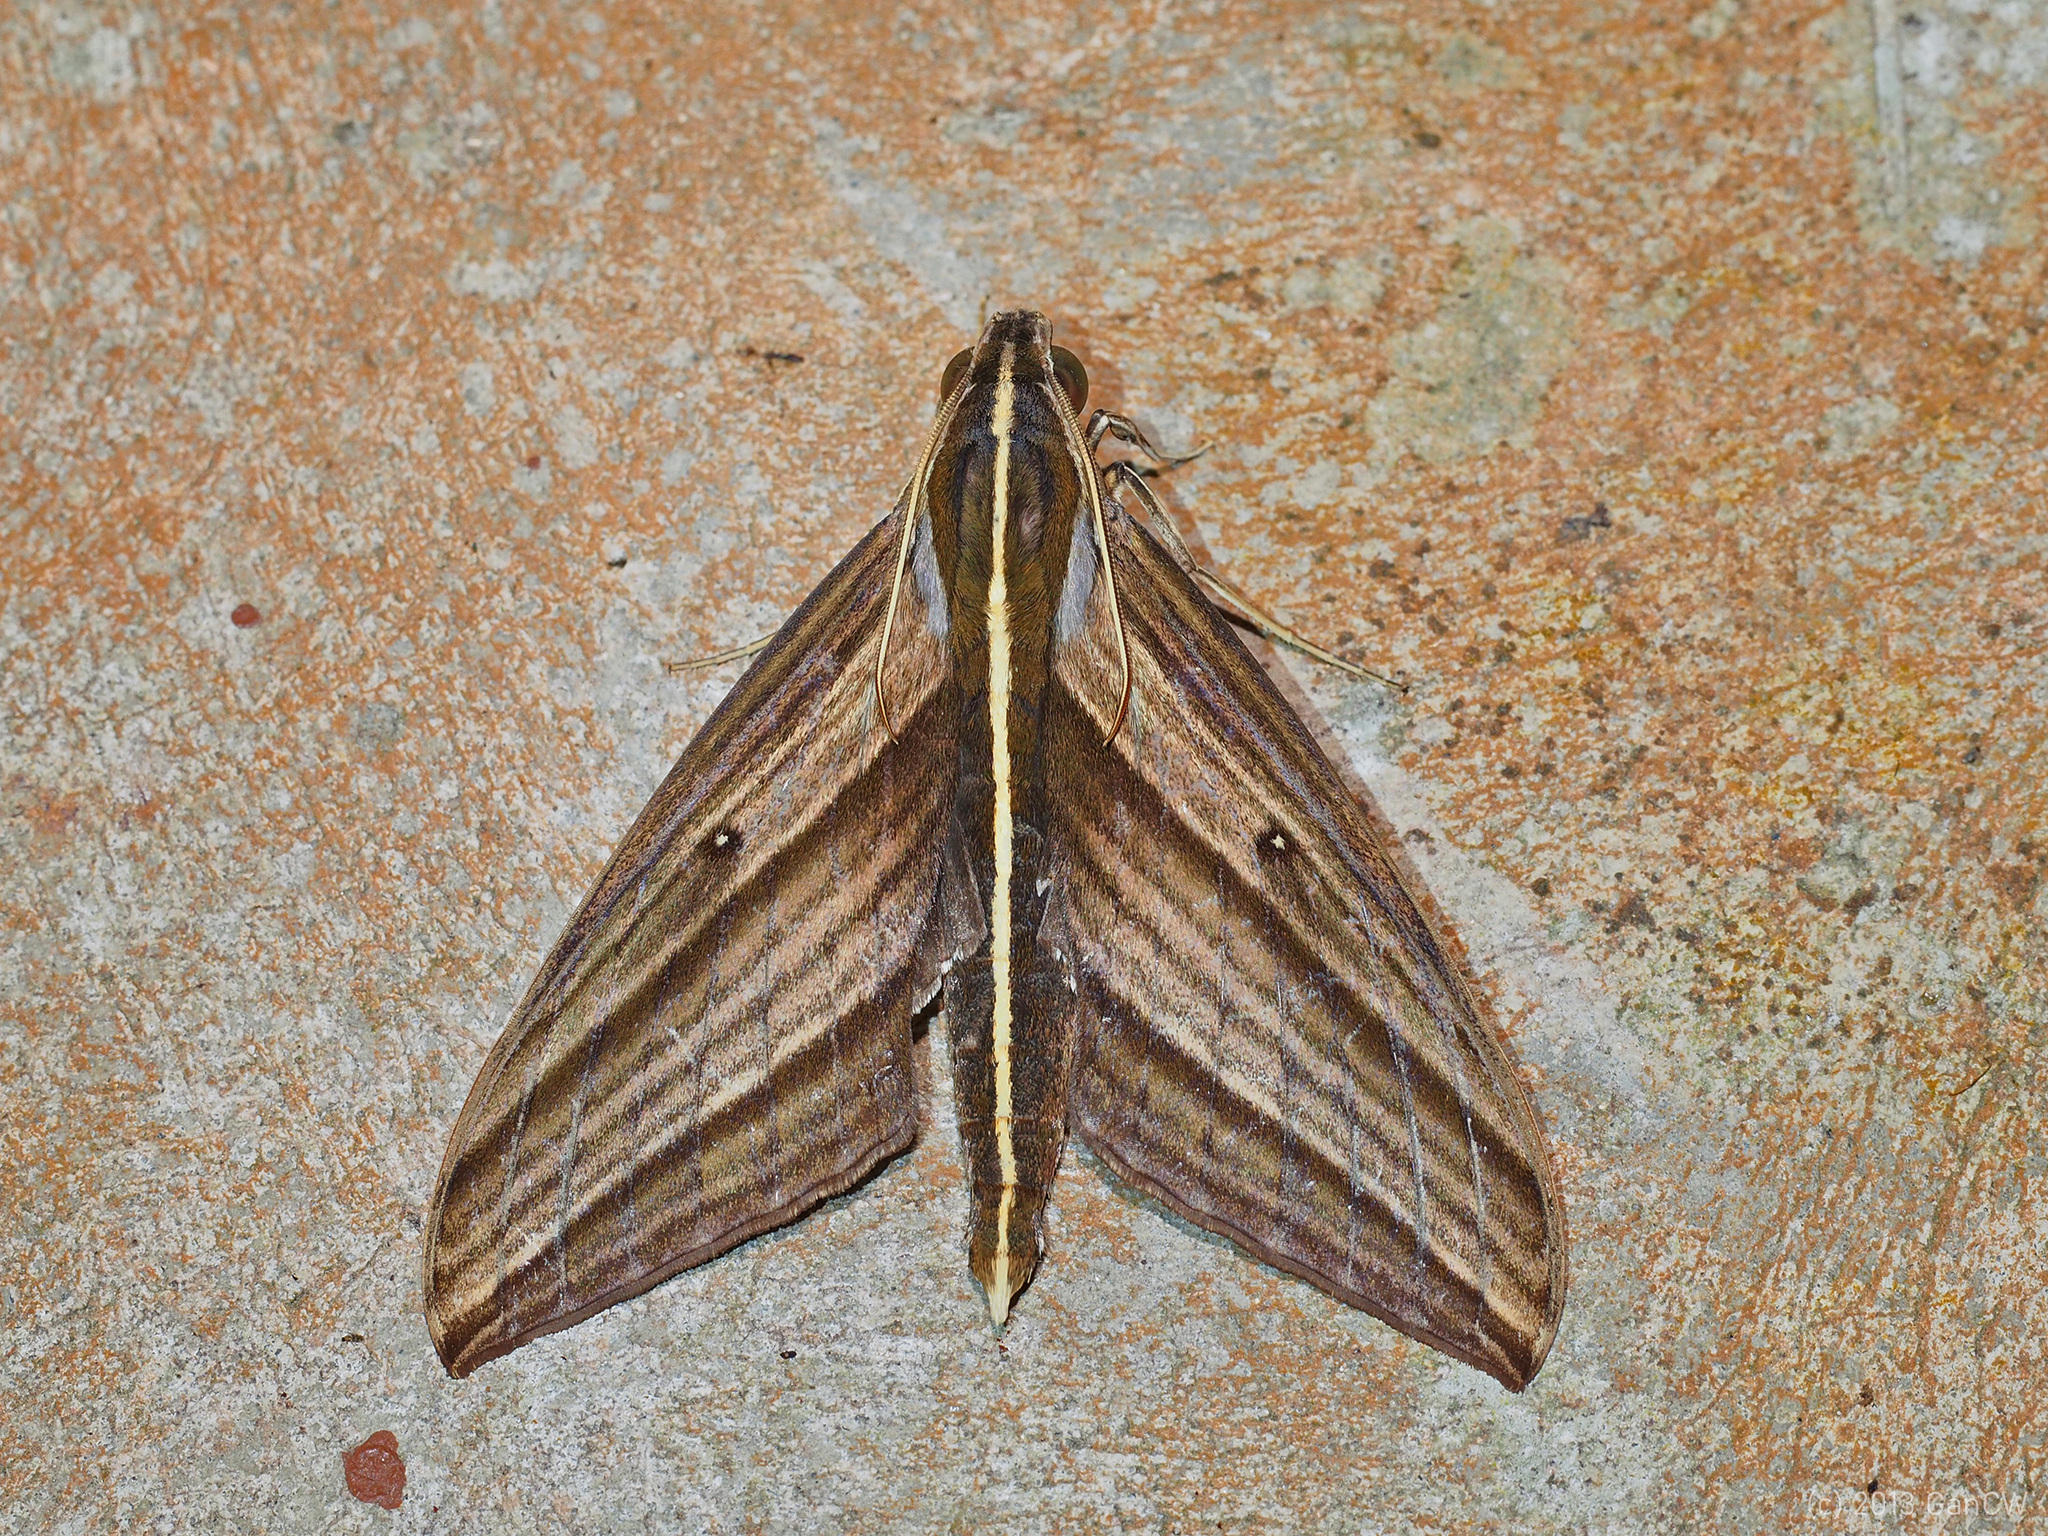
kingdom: Animalia
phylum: Arthropoda
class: Insecta
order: Lepidoptera
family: Sphingidae
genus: Elibia
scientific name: Elibia dolichus
